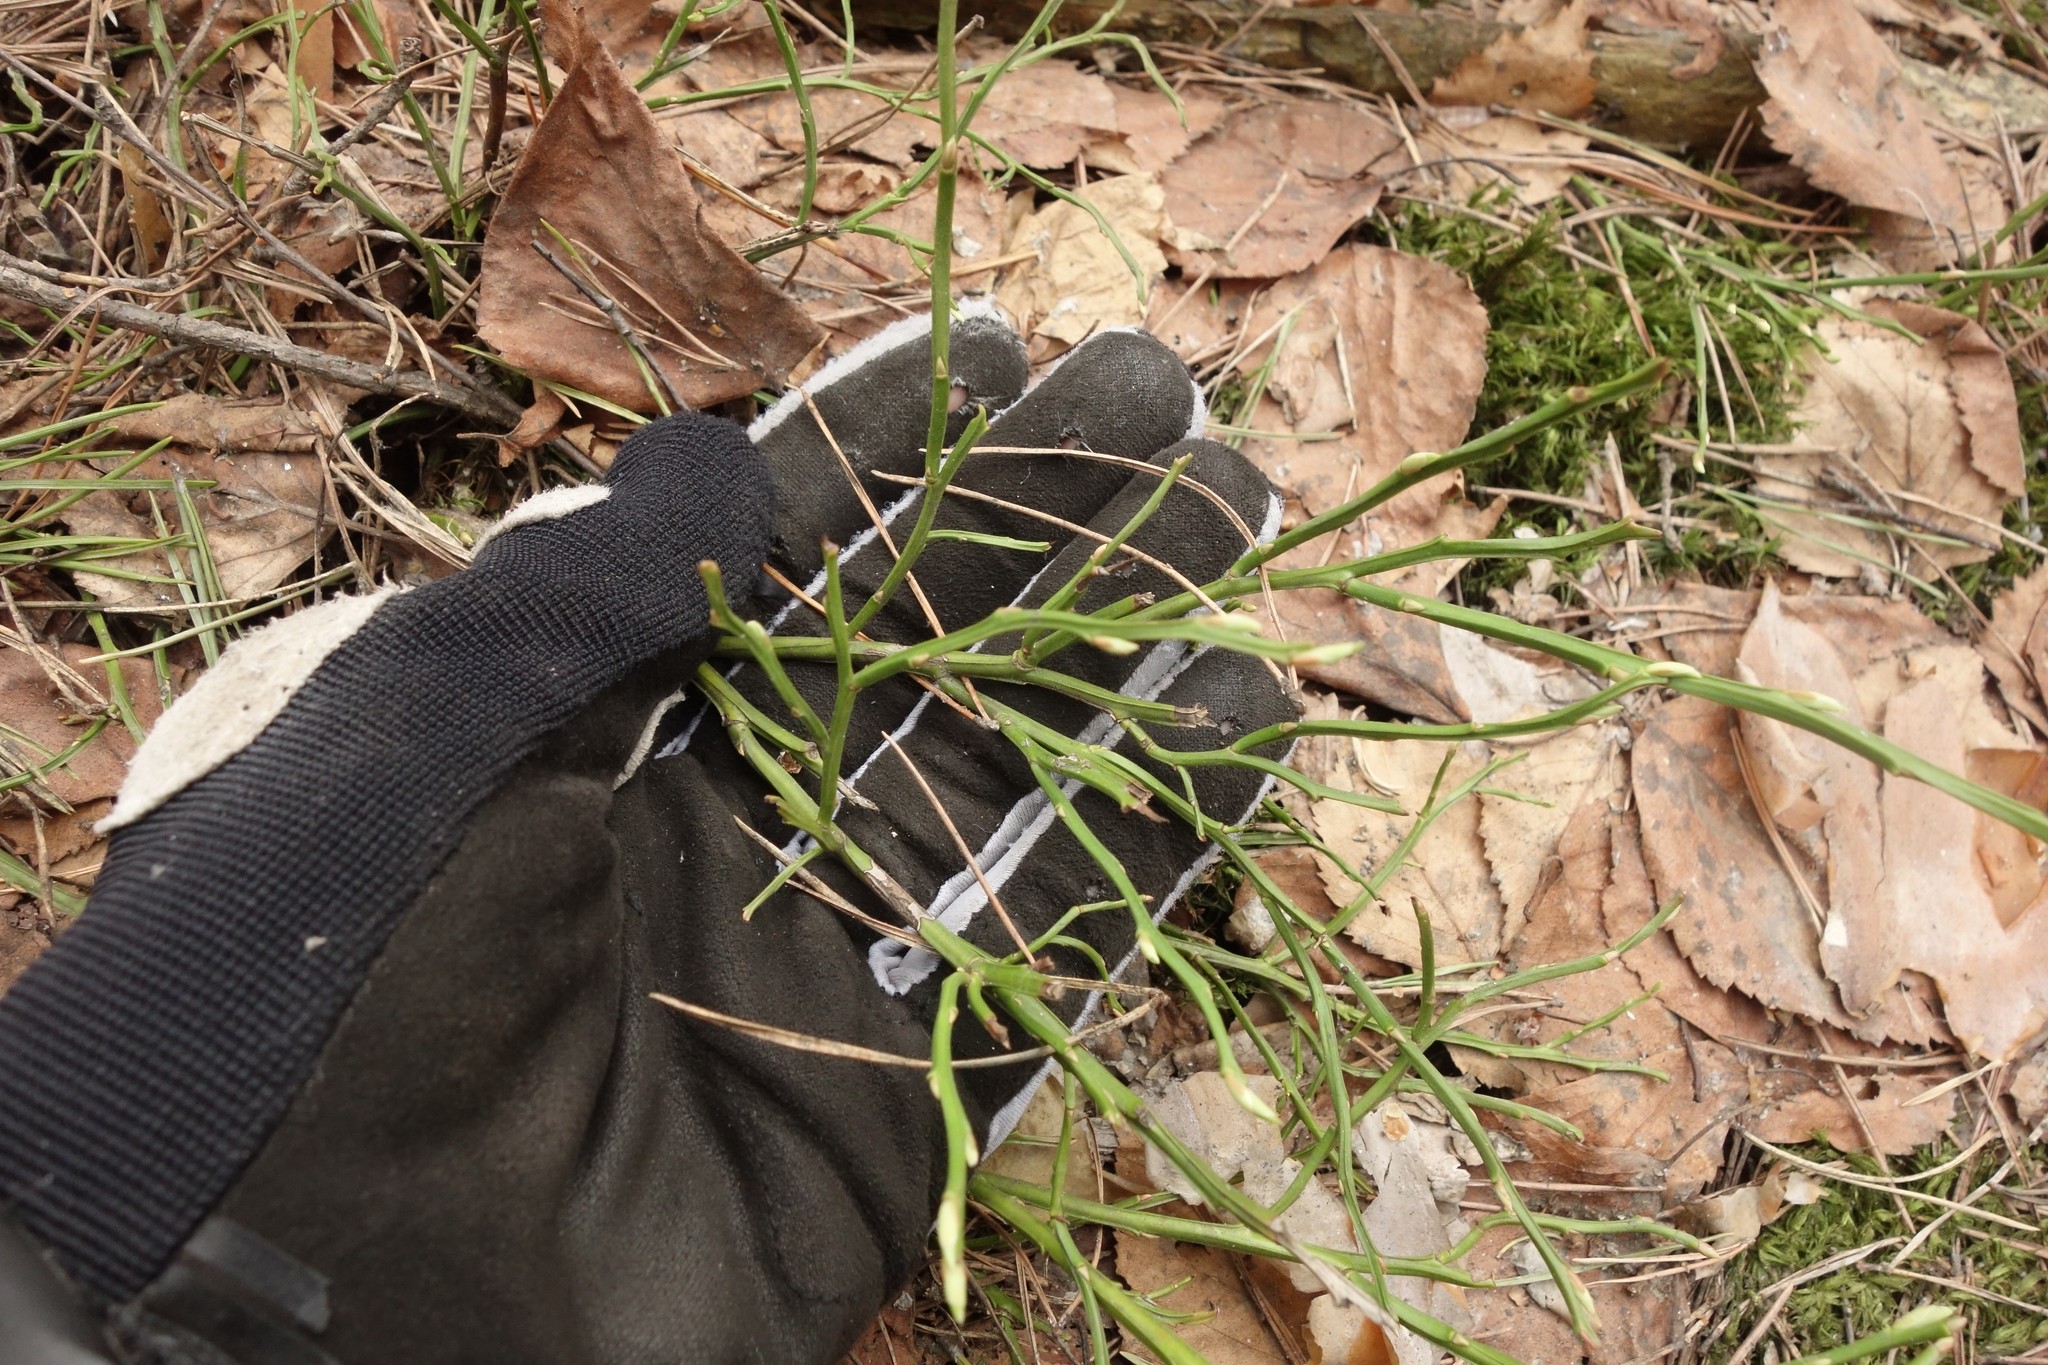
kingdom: Plantae
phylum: Tracheophyta
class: Magnoliopsida
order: Ericales
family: Ericaceae
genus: Vaccinium
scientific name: Vaccinium myrtillus
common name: Bilberry
